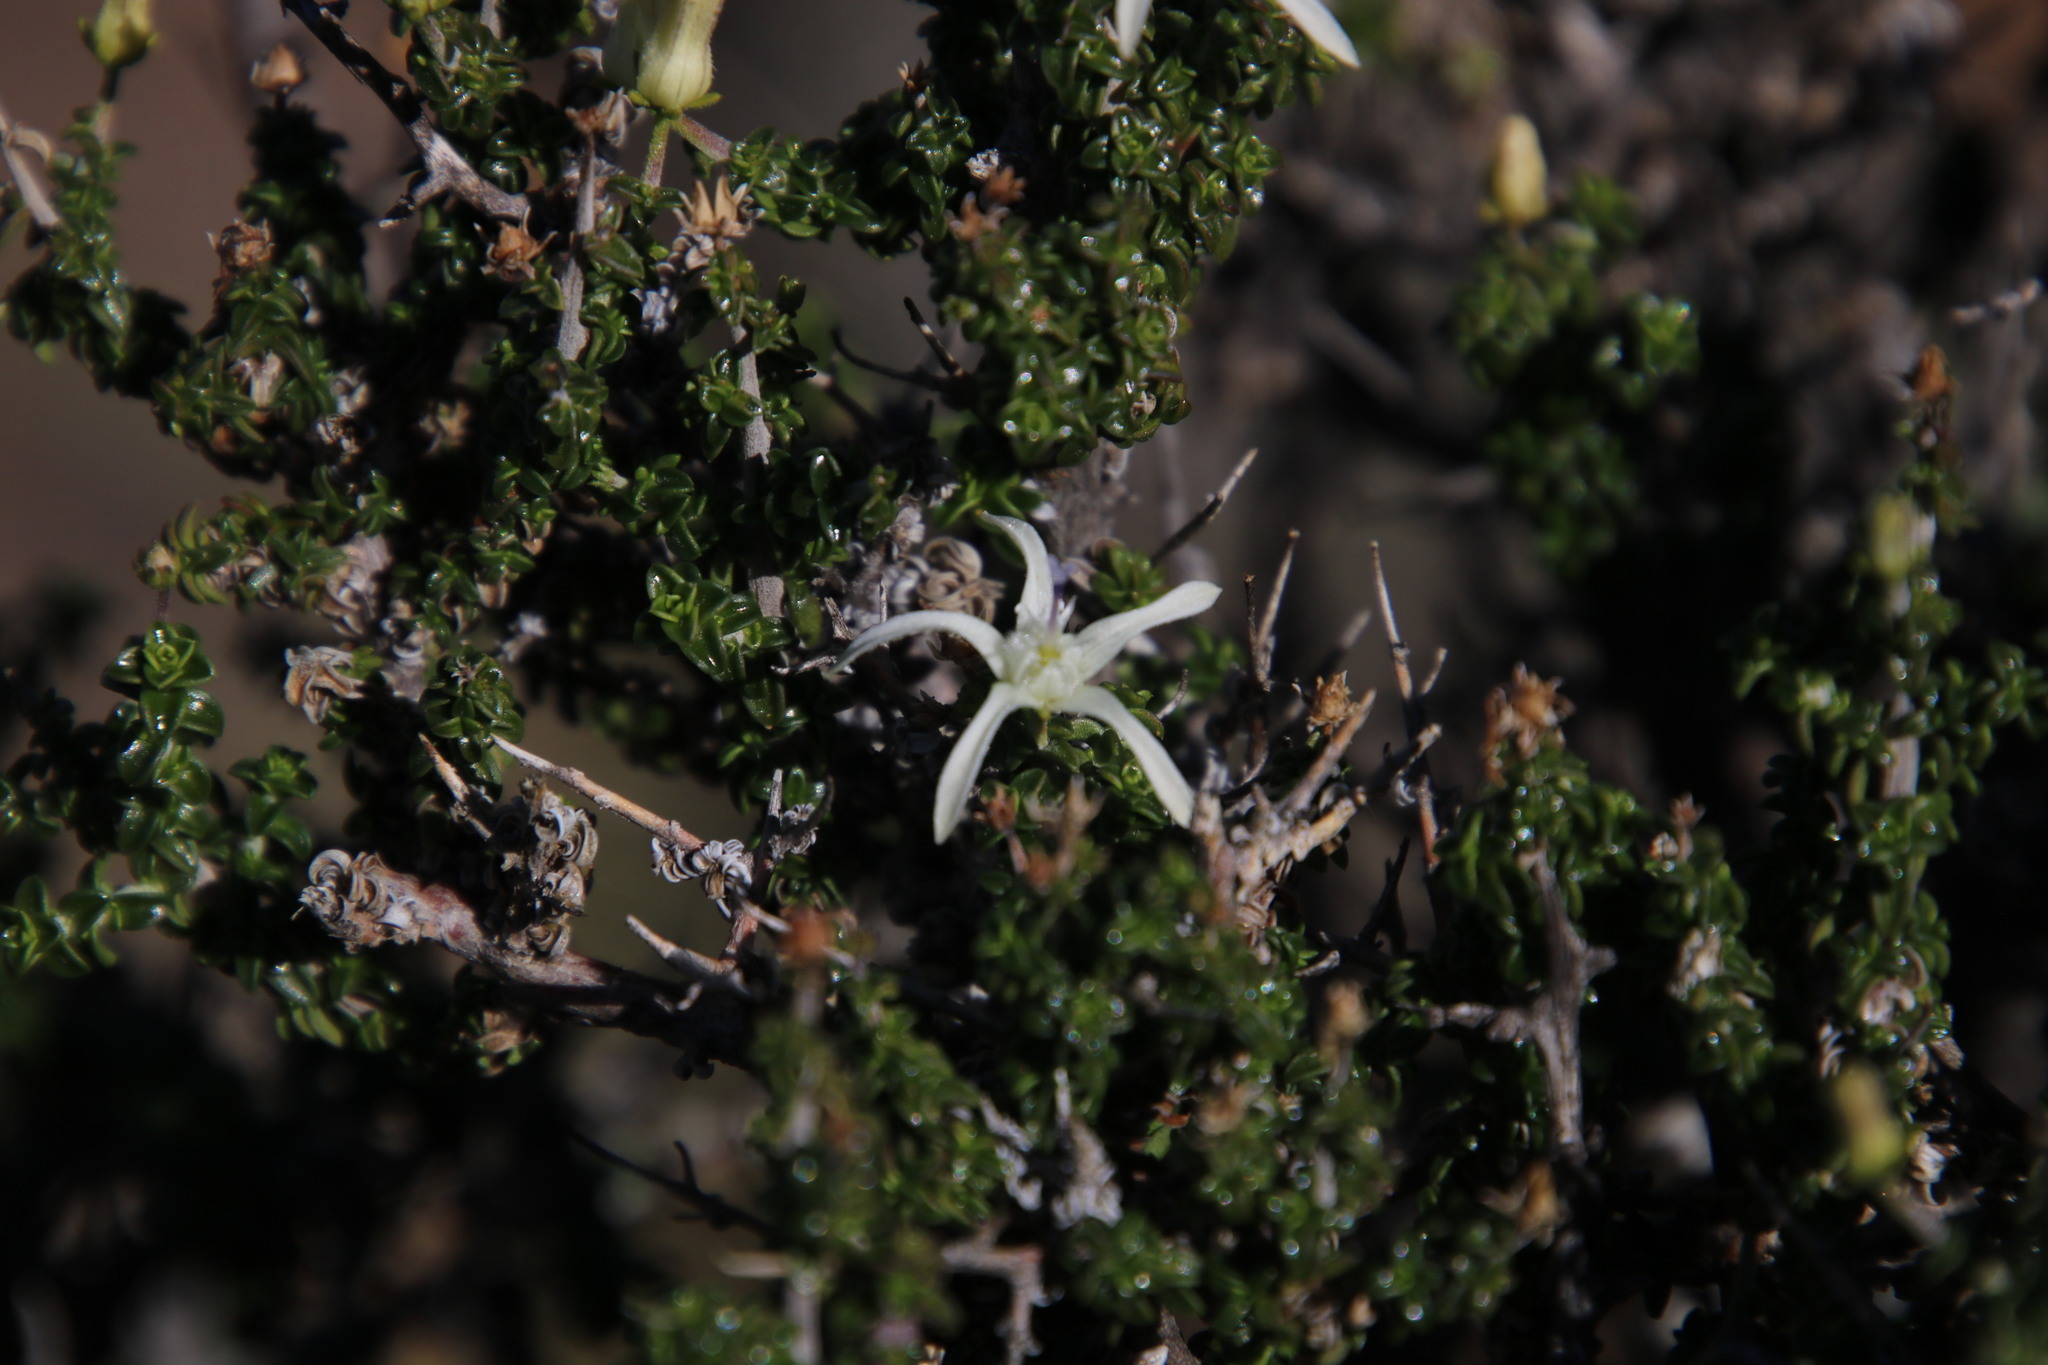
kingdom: Plantae
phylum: Tracheophyta
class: Magnoliopsida
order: Asterales
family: Campanulaceae
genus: Wahlenbergia
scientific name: Wahlenbergia nodosa
